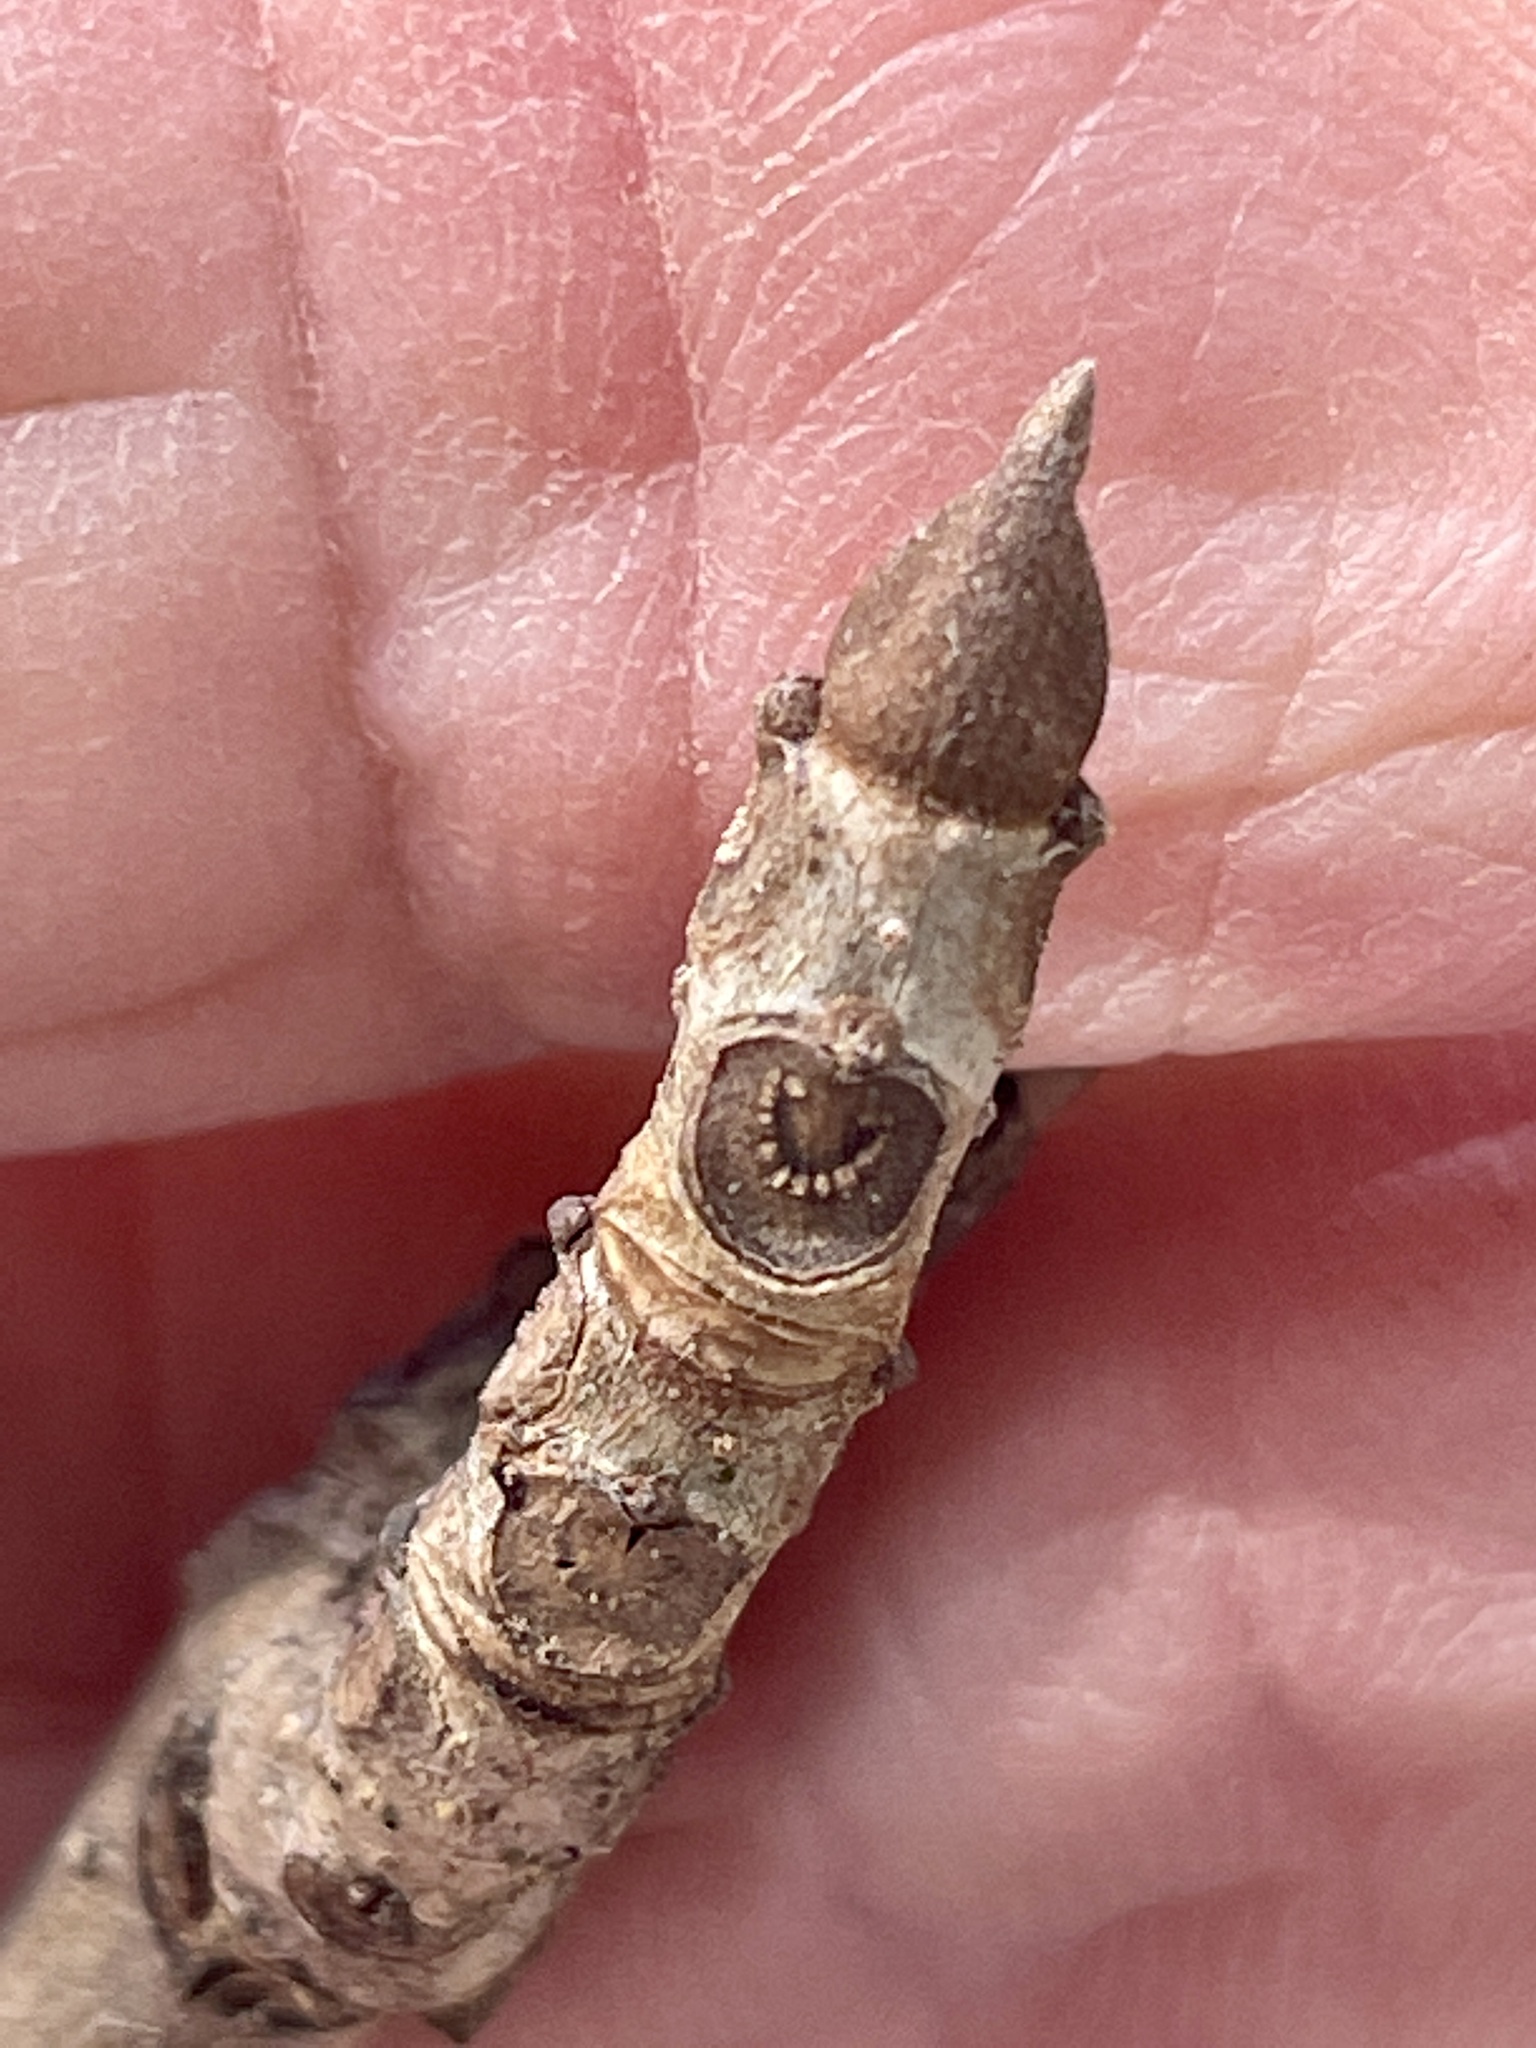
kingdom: Plantae
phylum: Tracheophyta
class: Magnoliopsida
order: Lamiales
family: Oleaceae
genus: Fraxinus
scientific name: Fraxinus nigra
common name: Black ash
